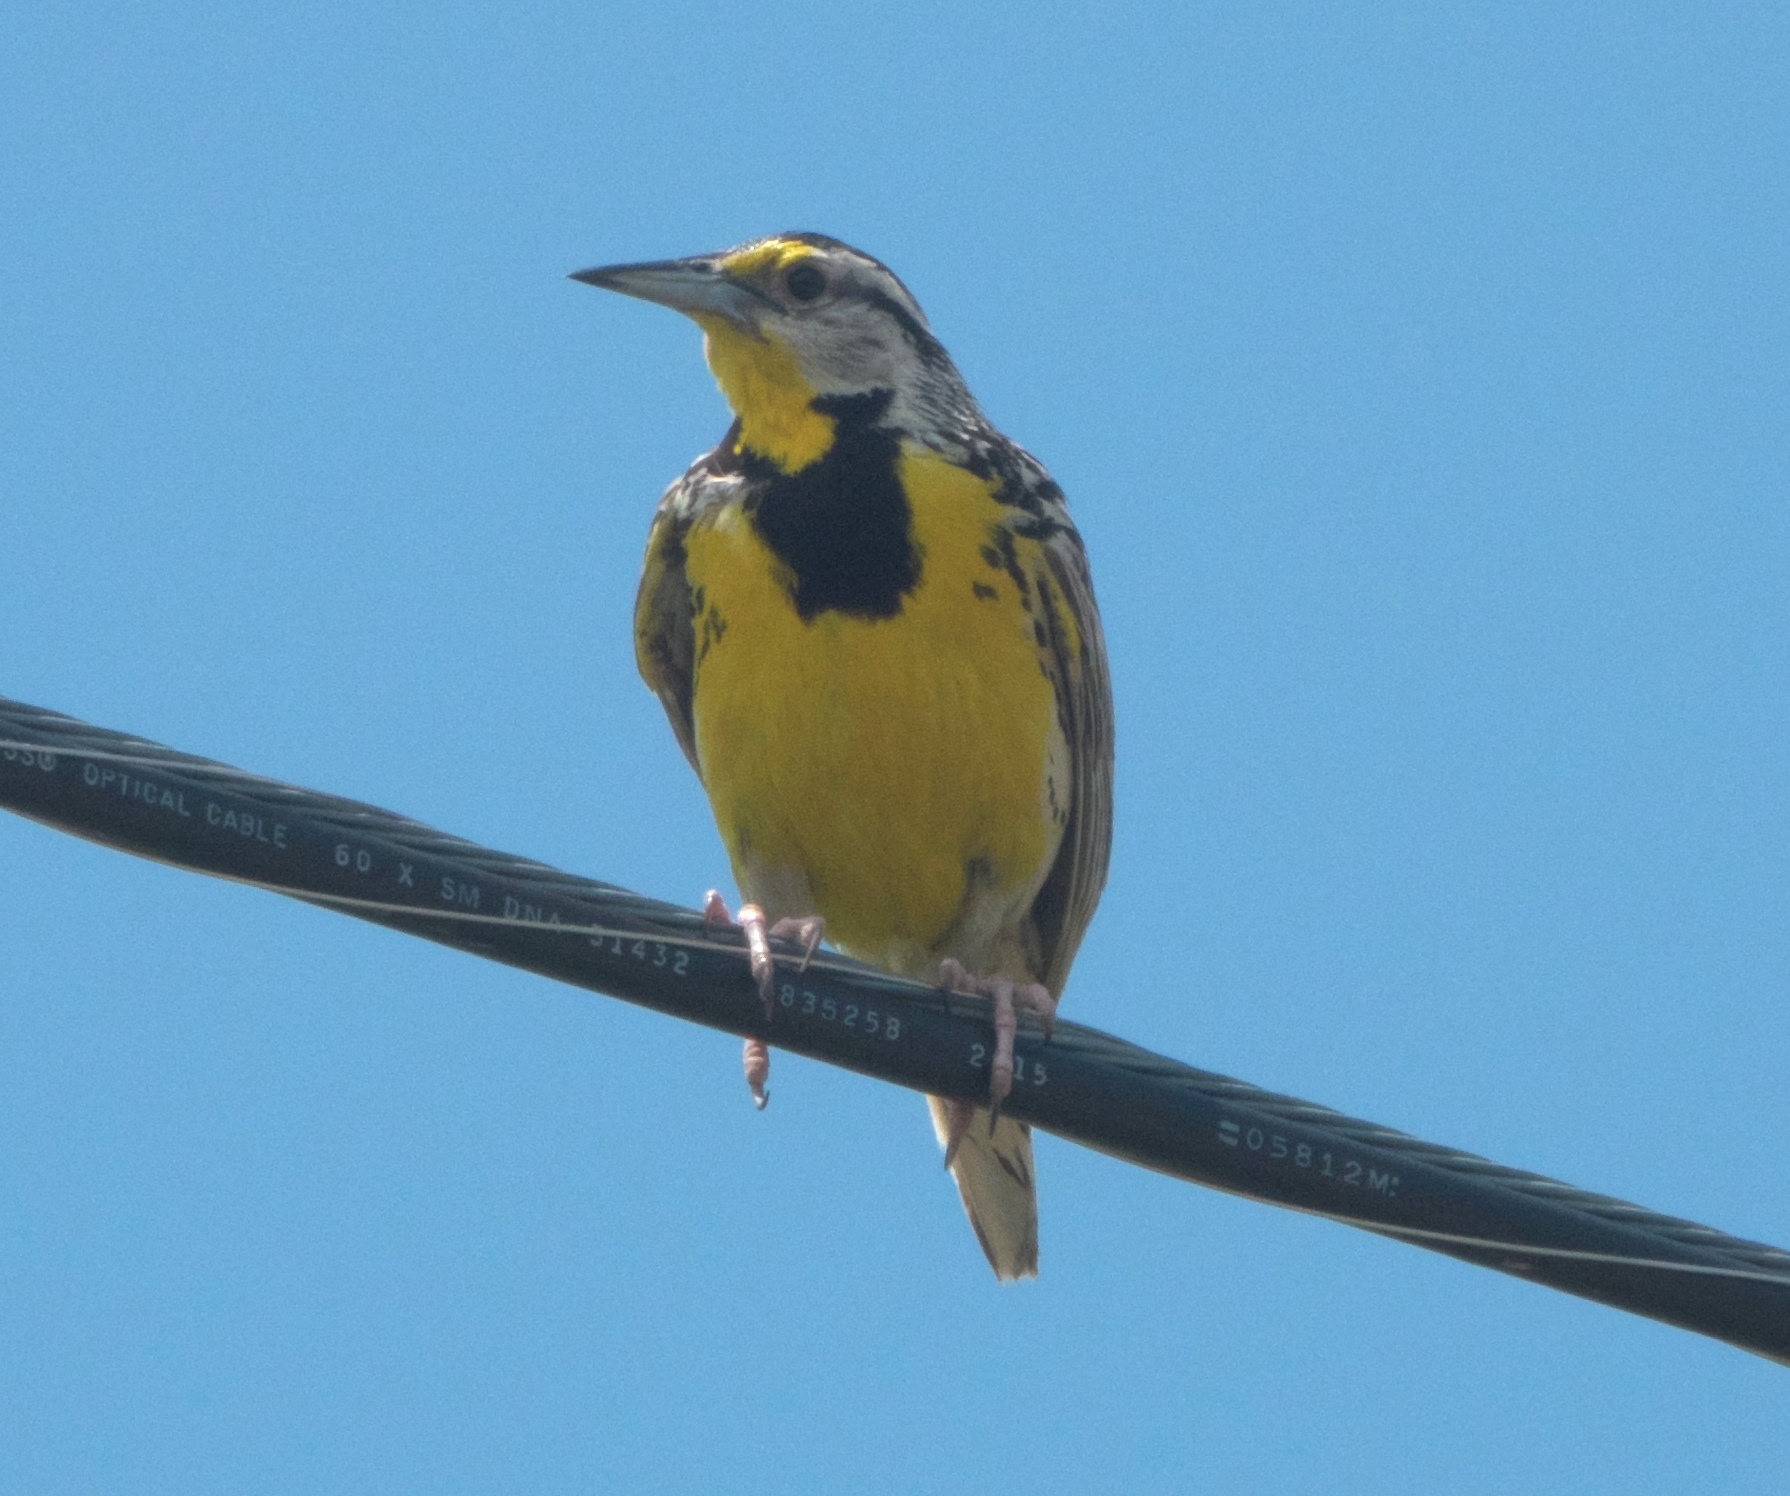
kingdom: Animalia
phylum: Chordata
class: Aves
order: Passeriformes
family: Icteridae
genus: Sturnella
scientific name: Sturnella magna
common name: Eastern meadowlark
